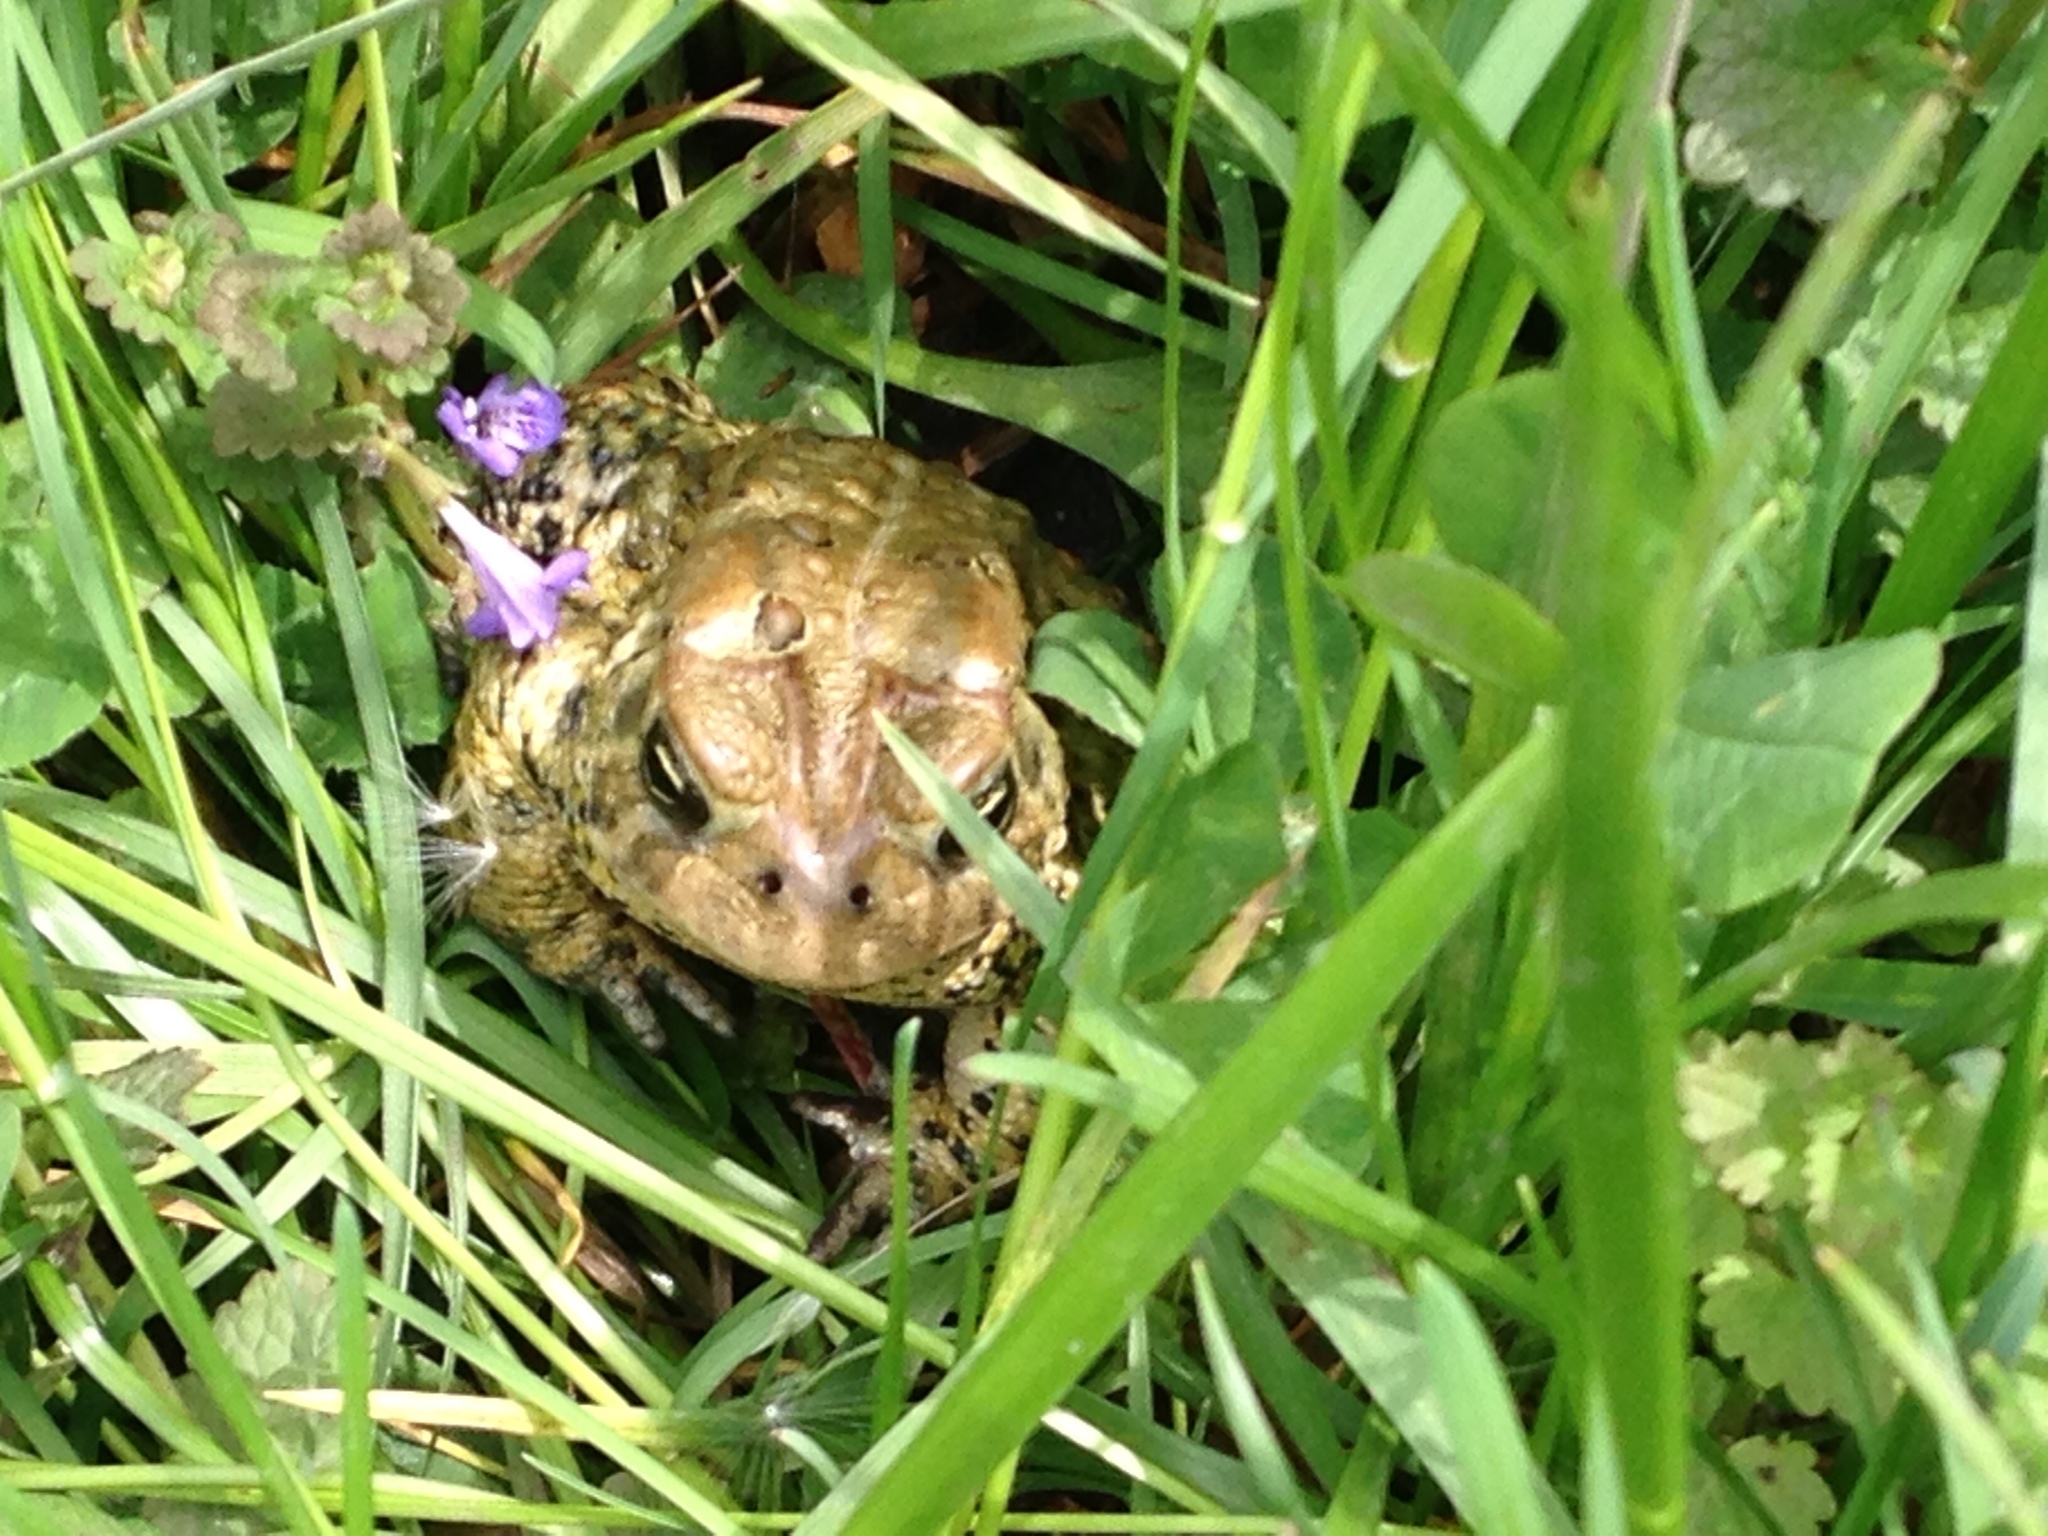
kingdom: Animalia
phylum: Chordata
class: Amphibia
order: Anura
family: Bufonidae
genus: Anaxyrus
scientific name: Anaxyrus americanus
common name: American toad
